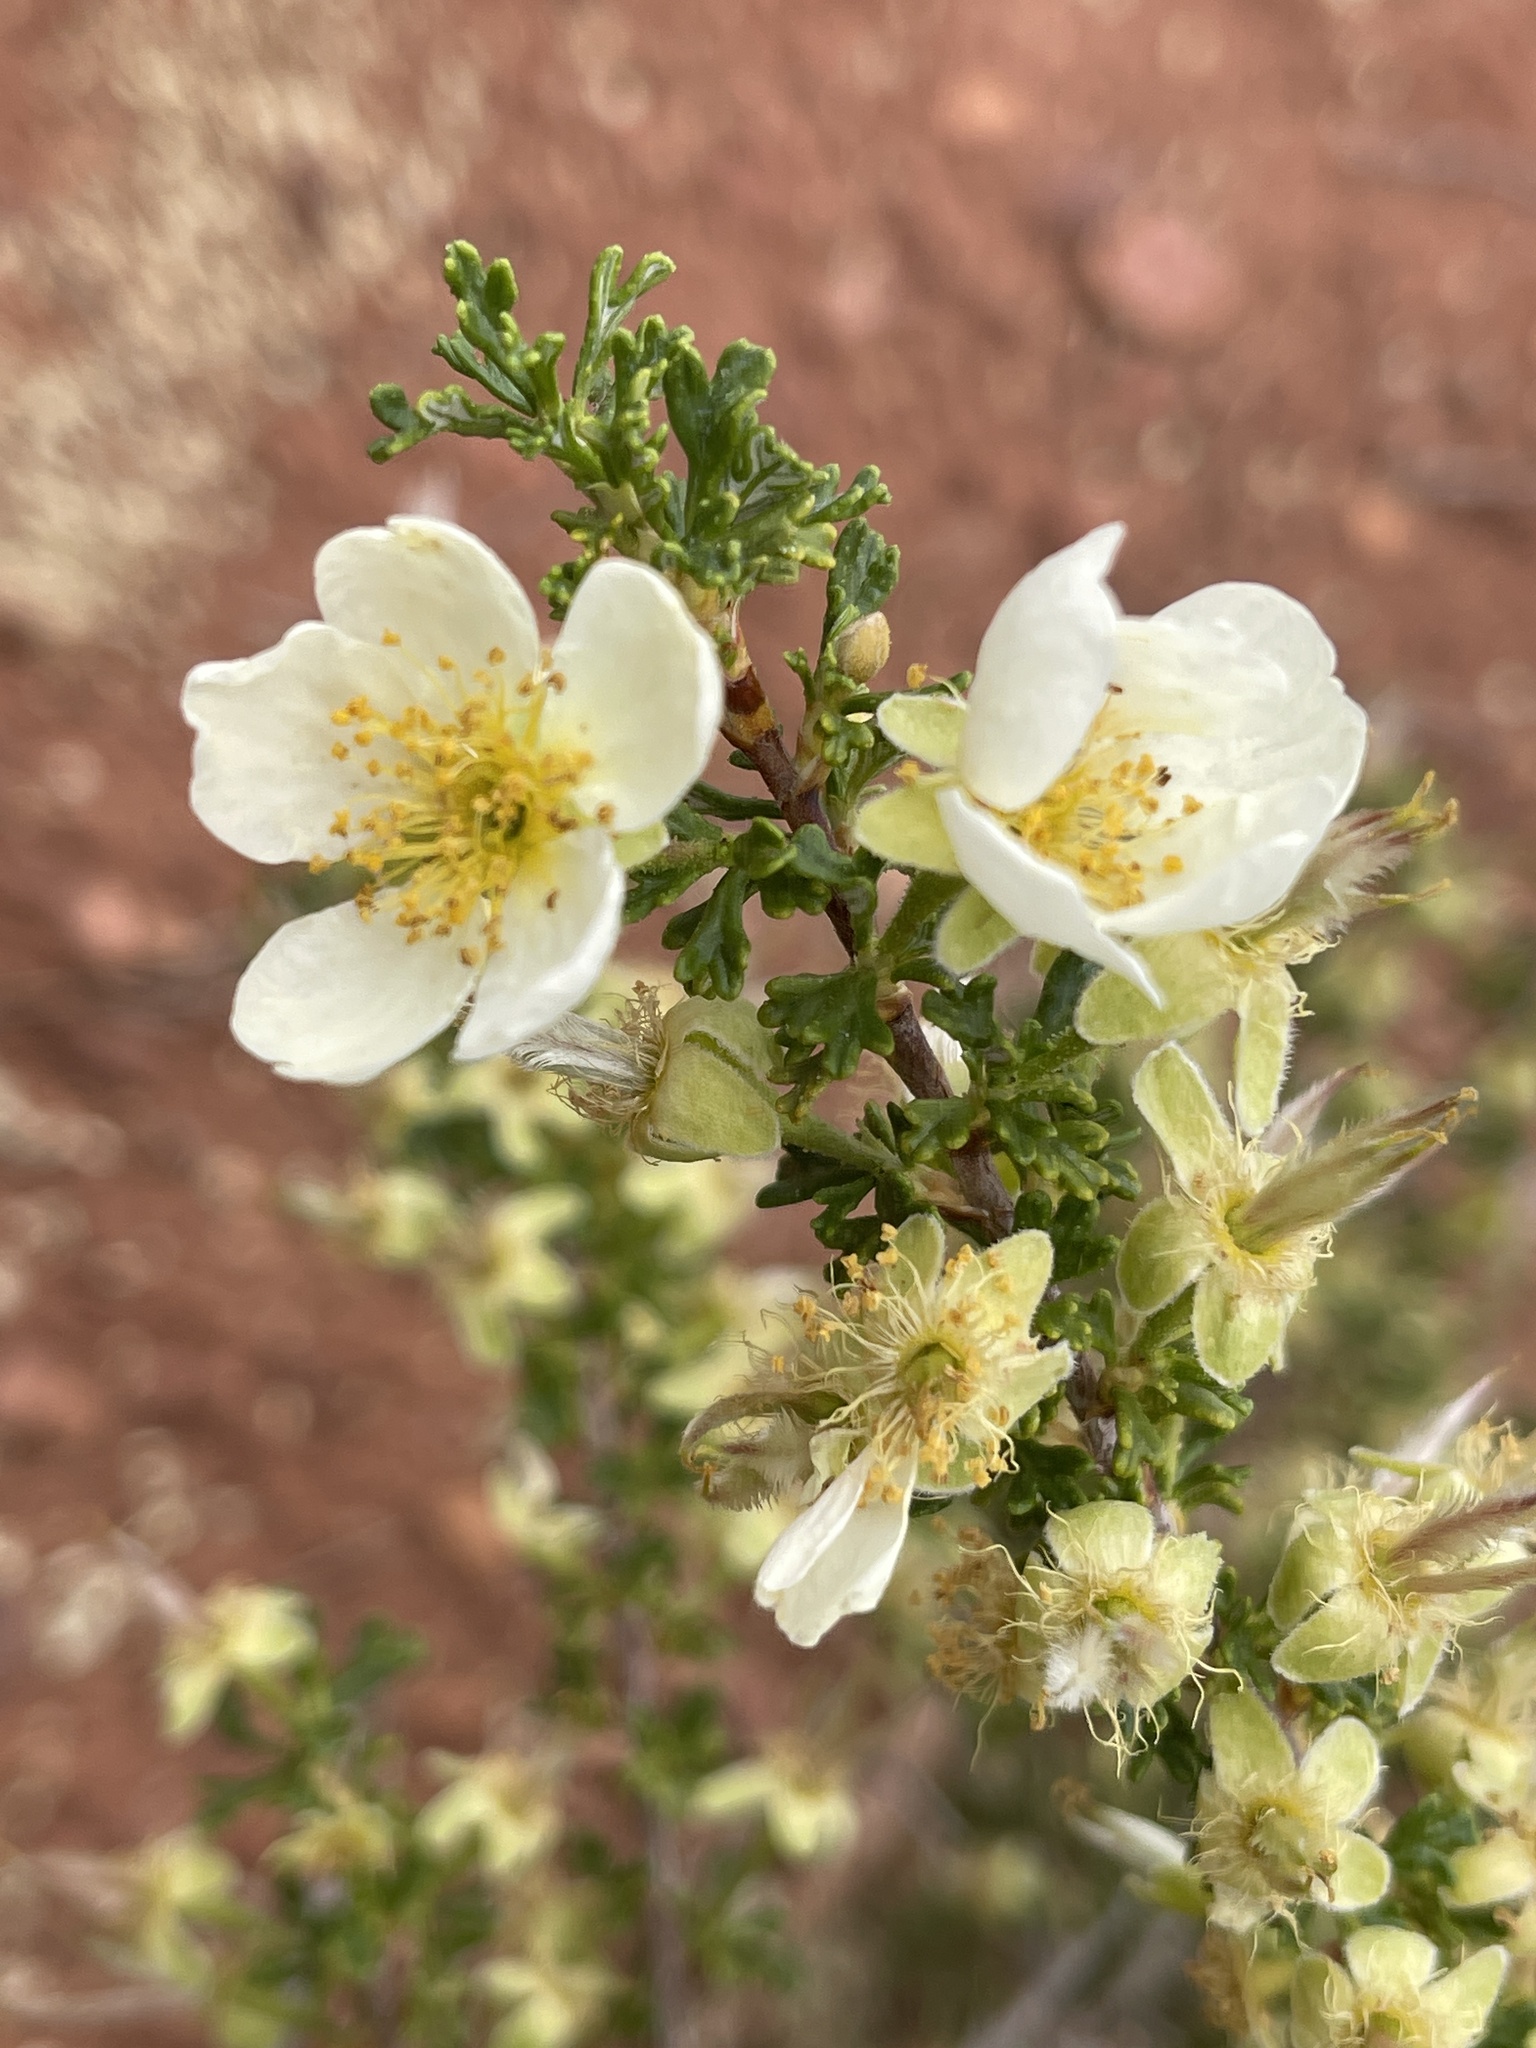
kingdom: Plantae
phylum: Tracheophyta
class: Magnoliopsida
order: Rosales
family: Rosaceae
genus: Purshia
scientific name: Purshia stansburiana
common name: Stansbury's cliffrose
